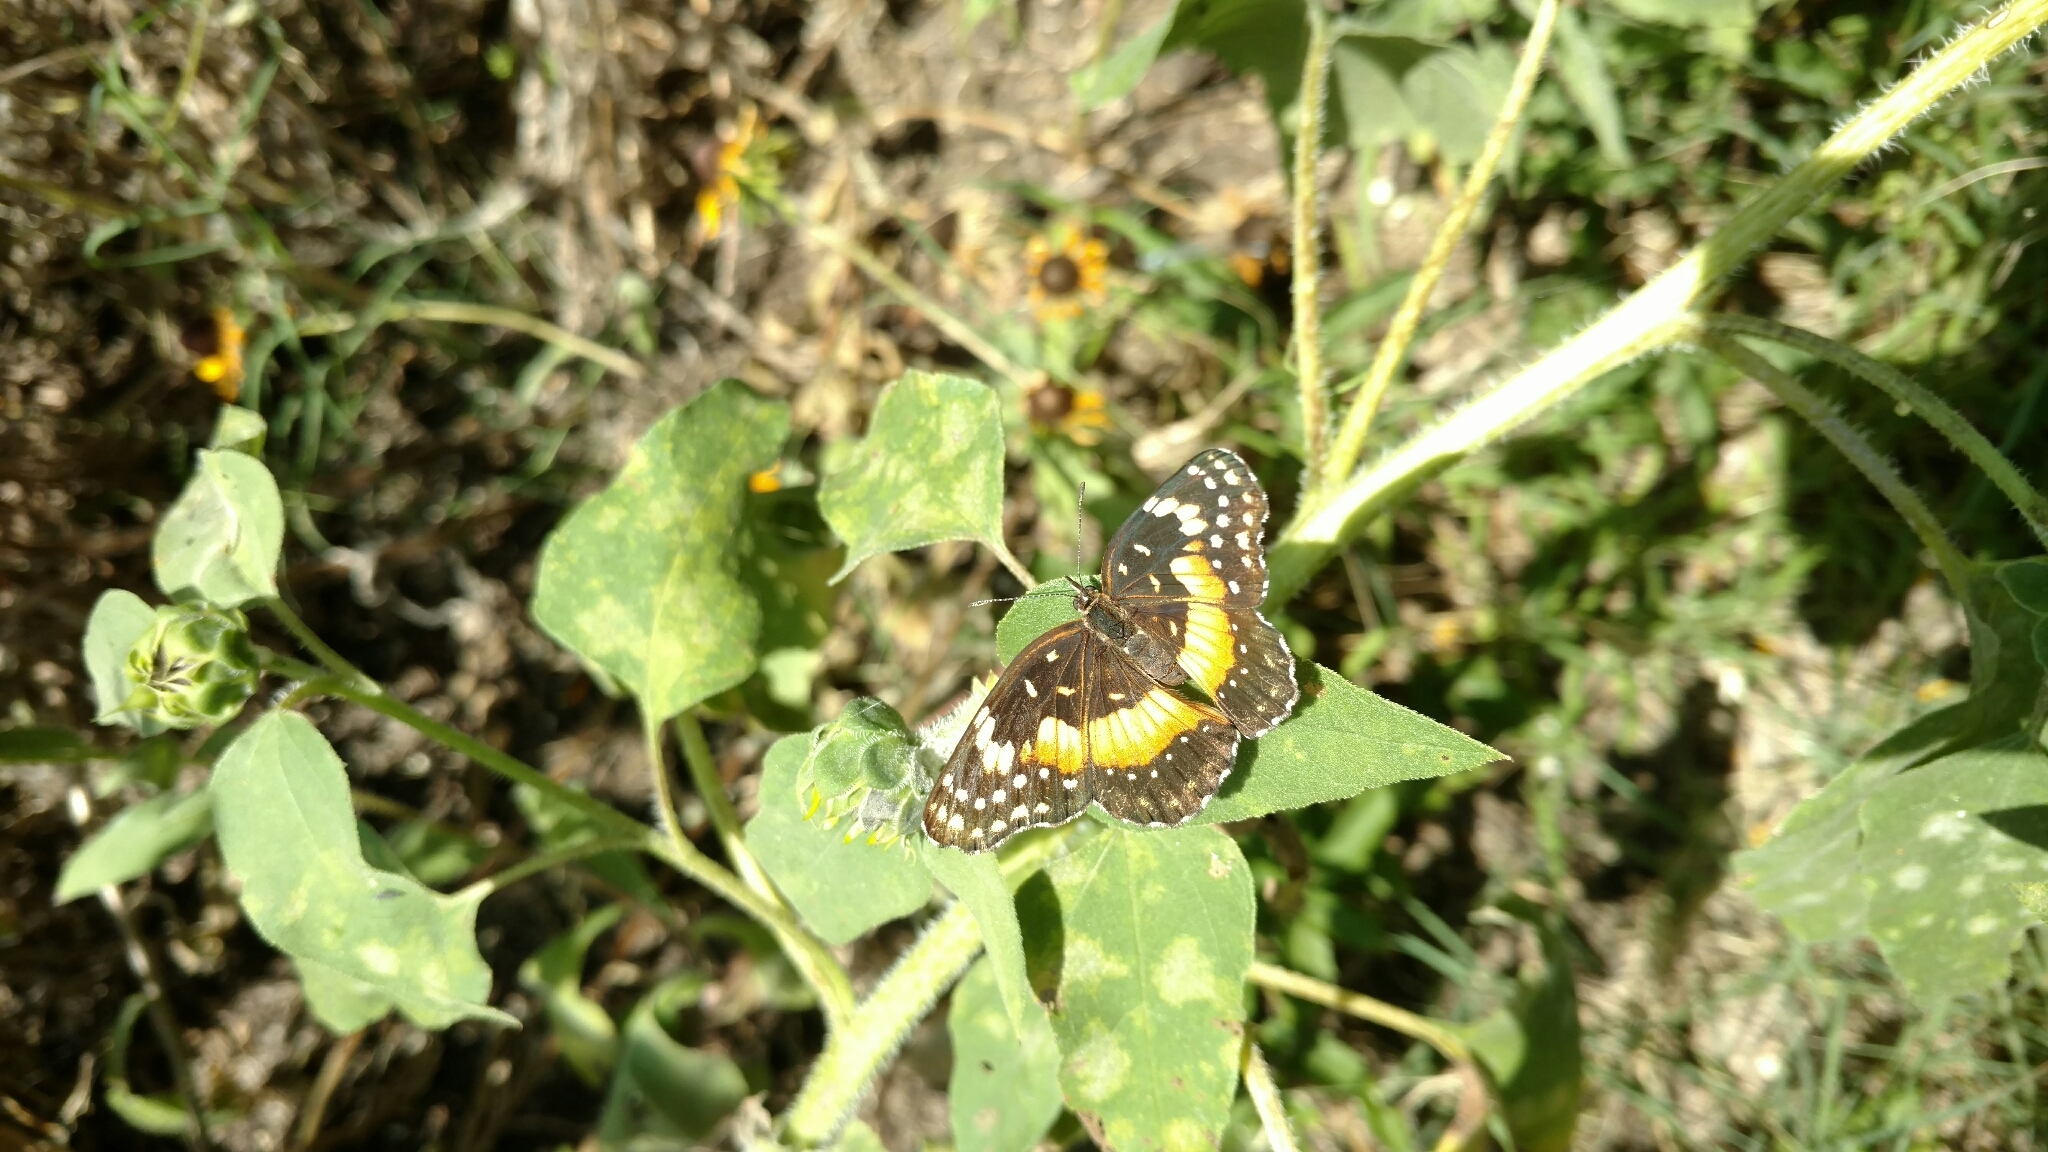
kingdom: Animalia
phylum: Arthropoda
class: Insecta
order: Lepidoptera
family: Nymphalidae
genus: Chlosyne
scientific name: Chlosyne lacinia
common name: Bordered patch
